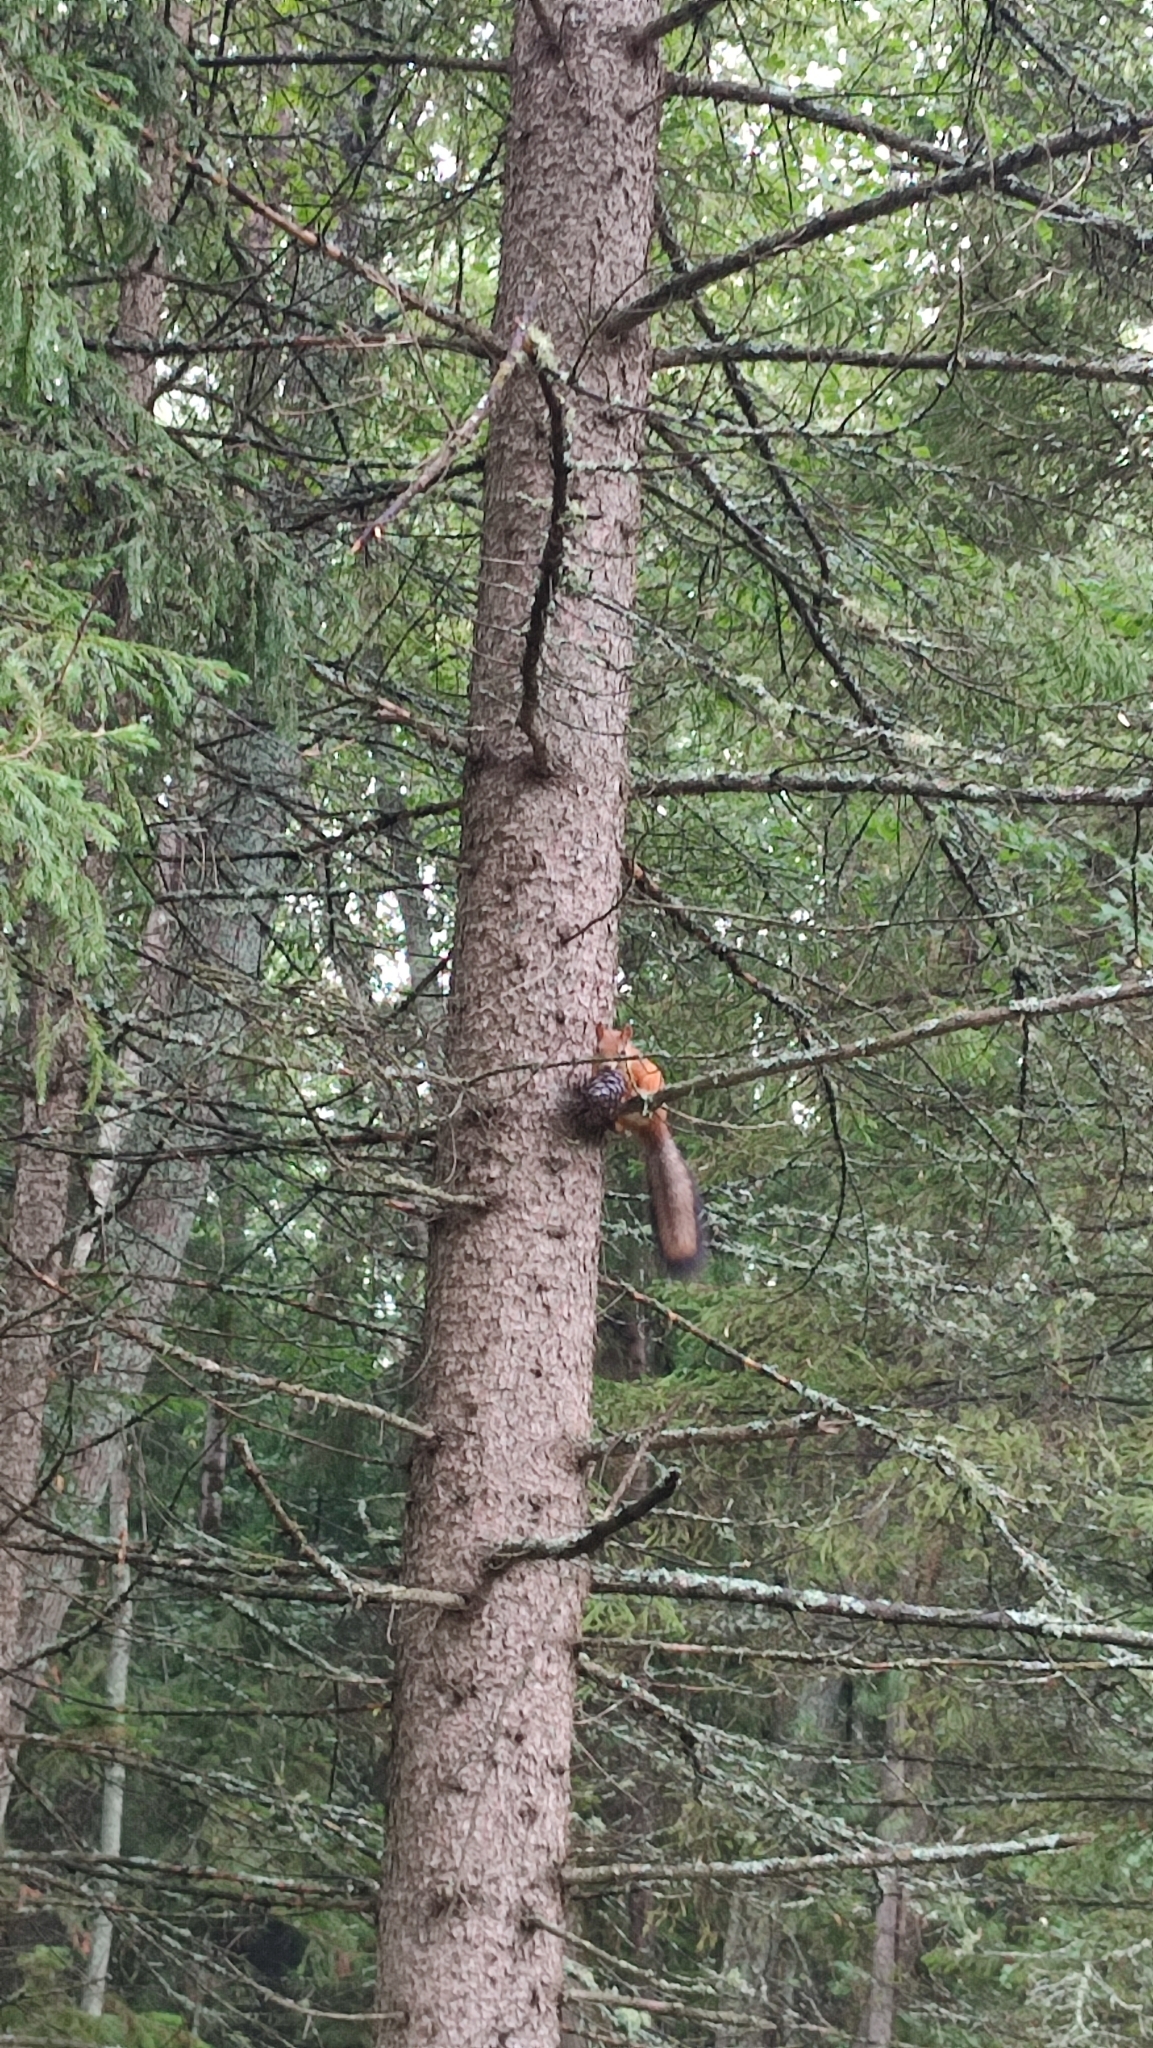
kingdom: Animalia
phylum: Chordata
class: Mammalia
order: Rodentia
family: Sciuridae
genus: Sciurus
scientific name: Sciurus vulgaris
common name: Eurasian red squirrel
